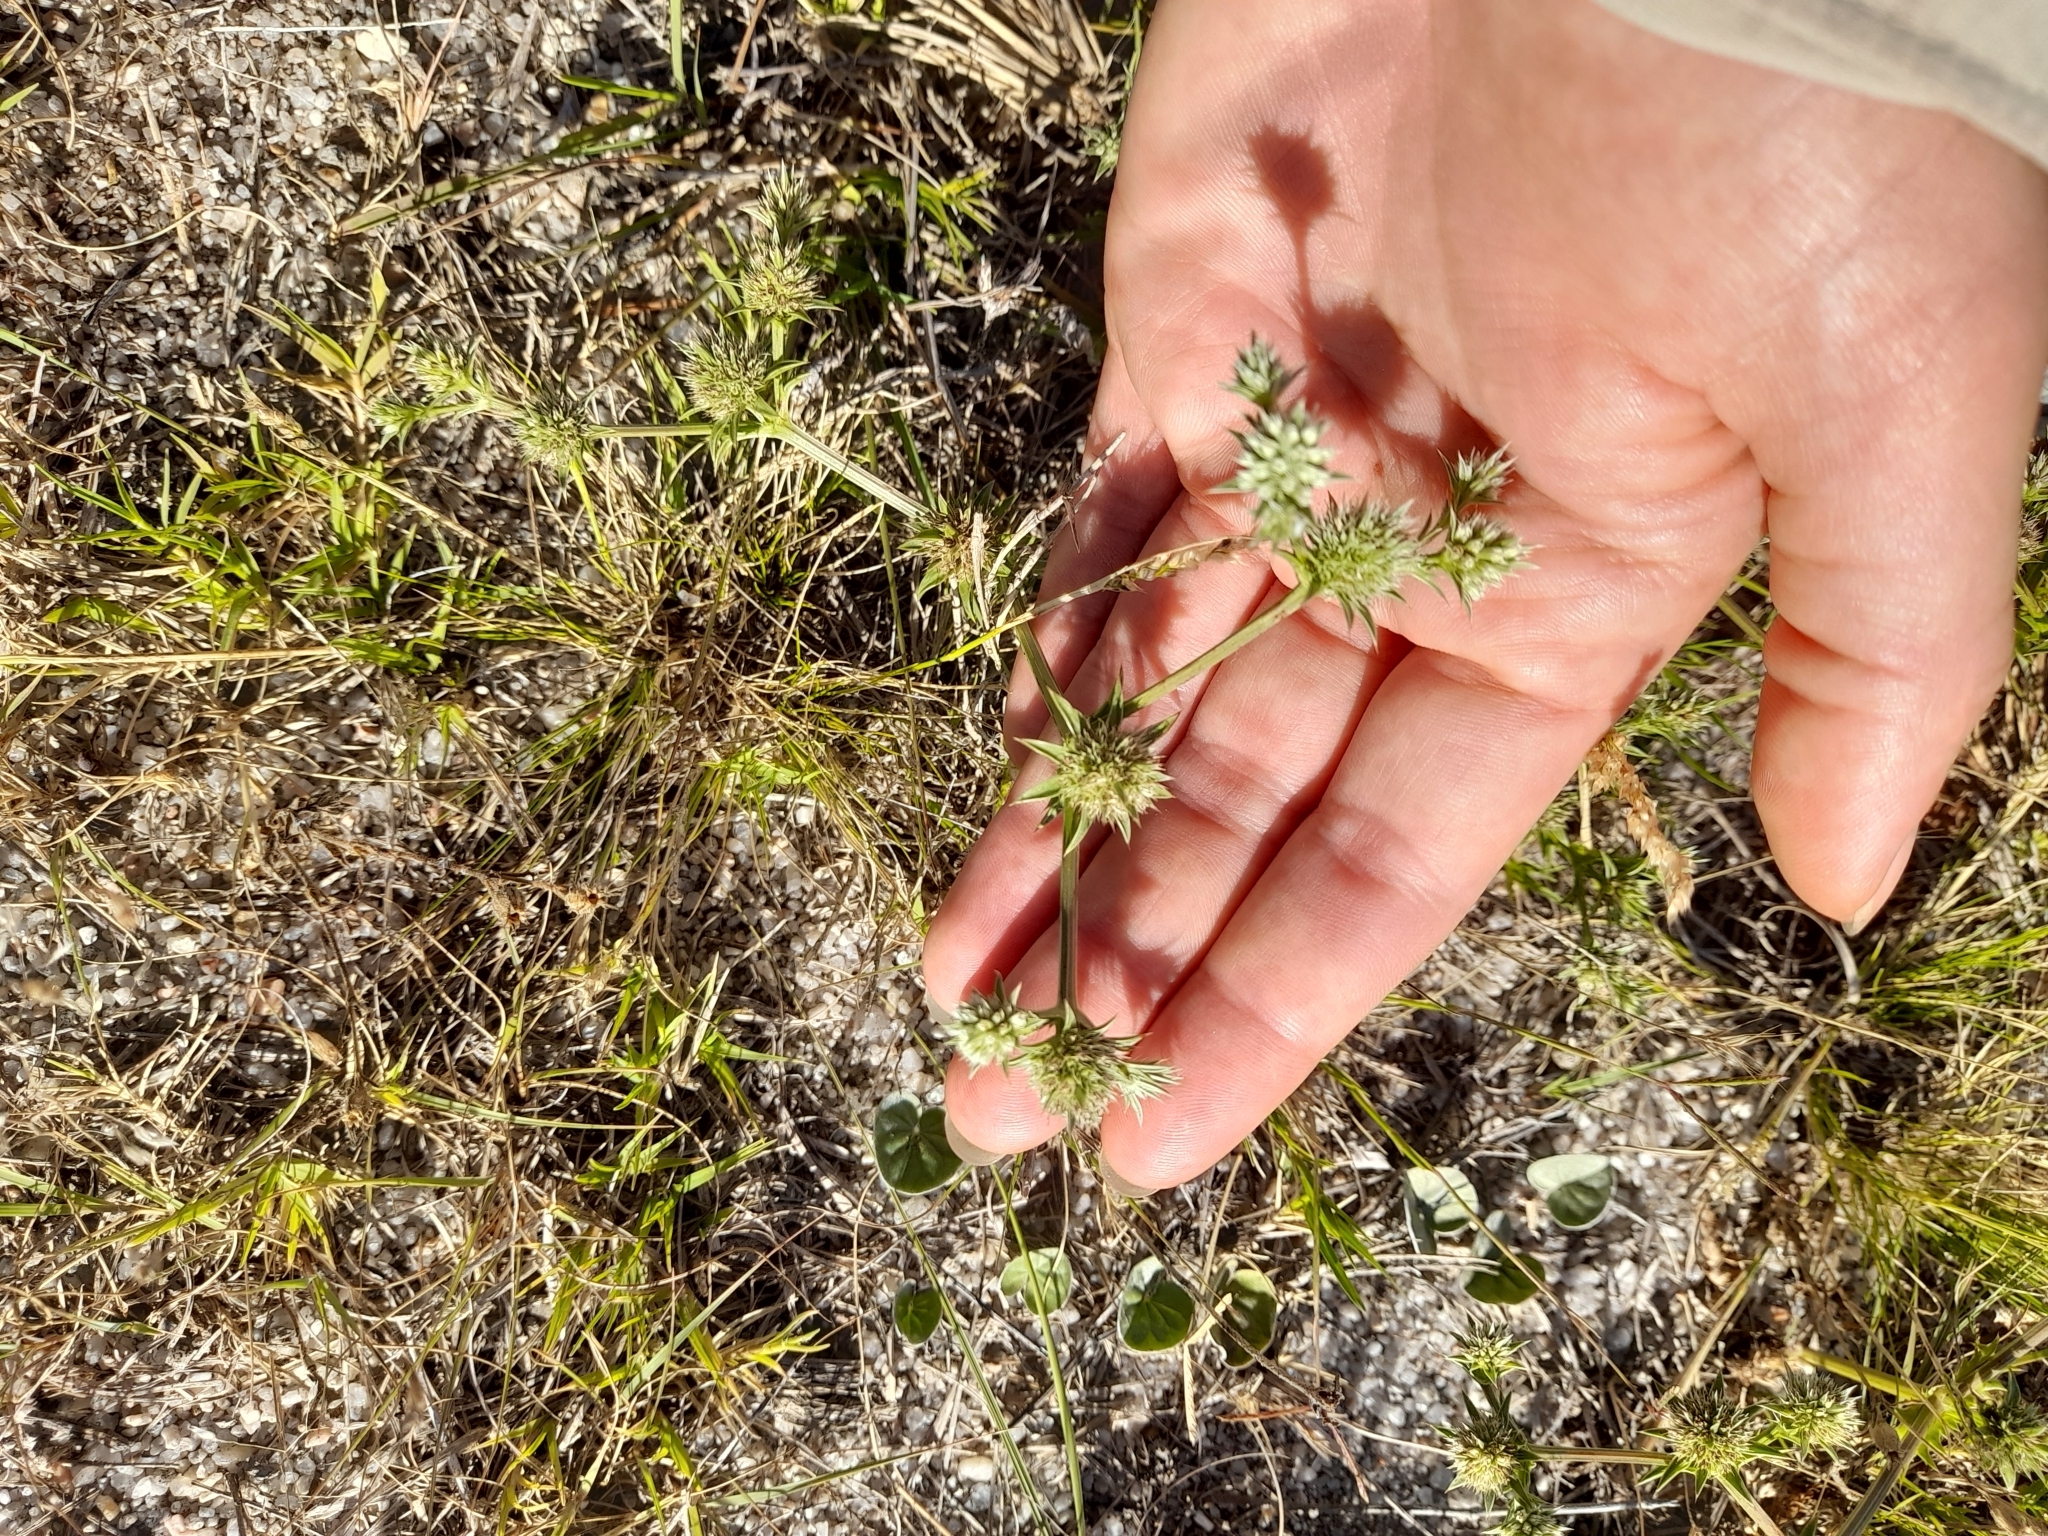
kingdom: Plantae
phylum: Tracheophyta
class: Magnoliopsida
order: Apiales
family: Apiaceae
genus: Eryngium
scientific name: Eryngium nudicaule
